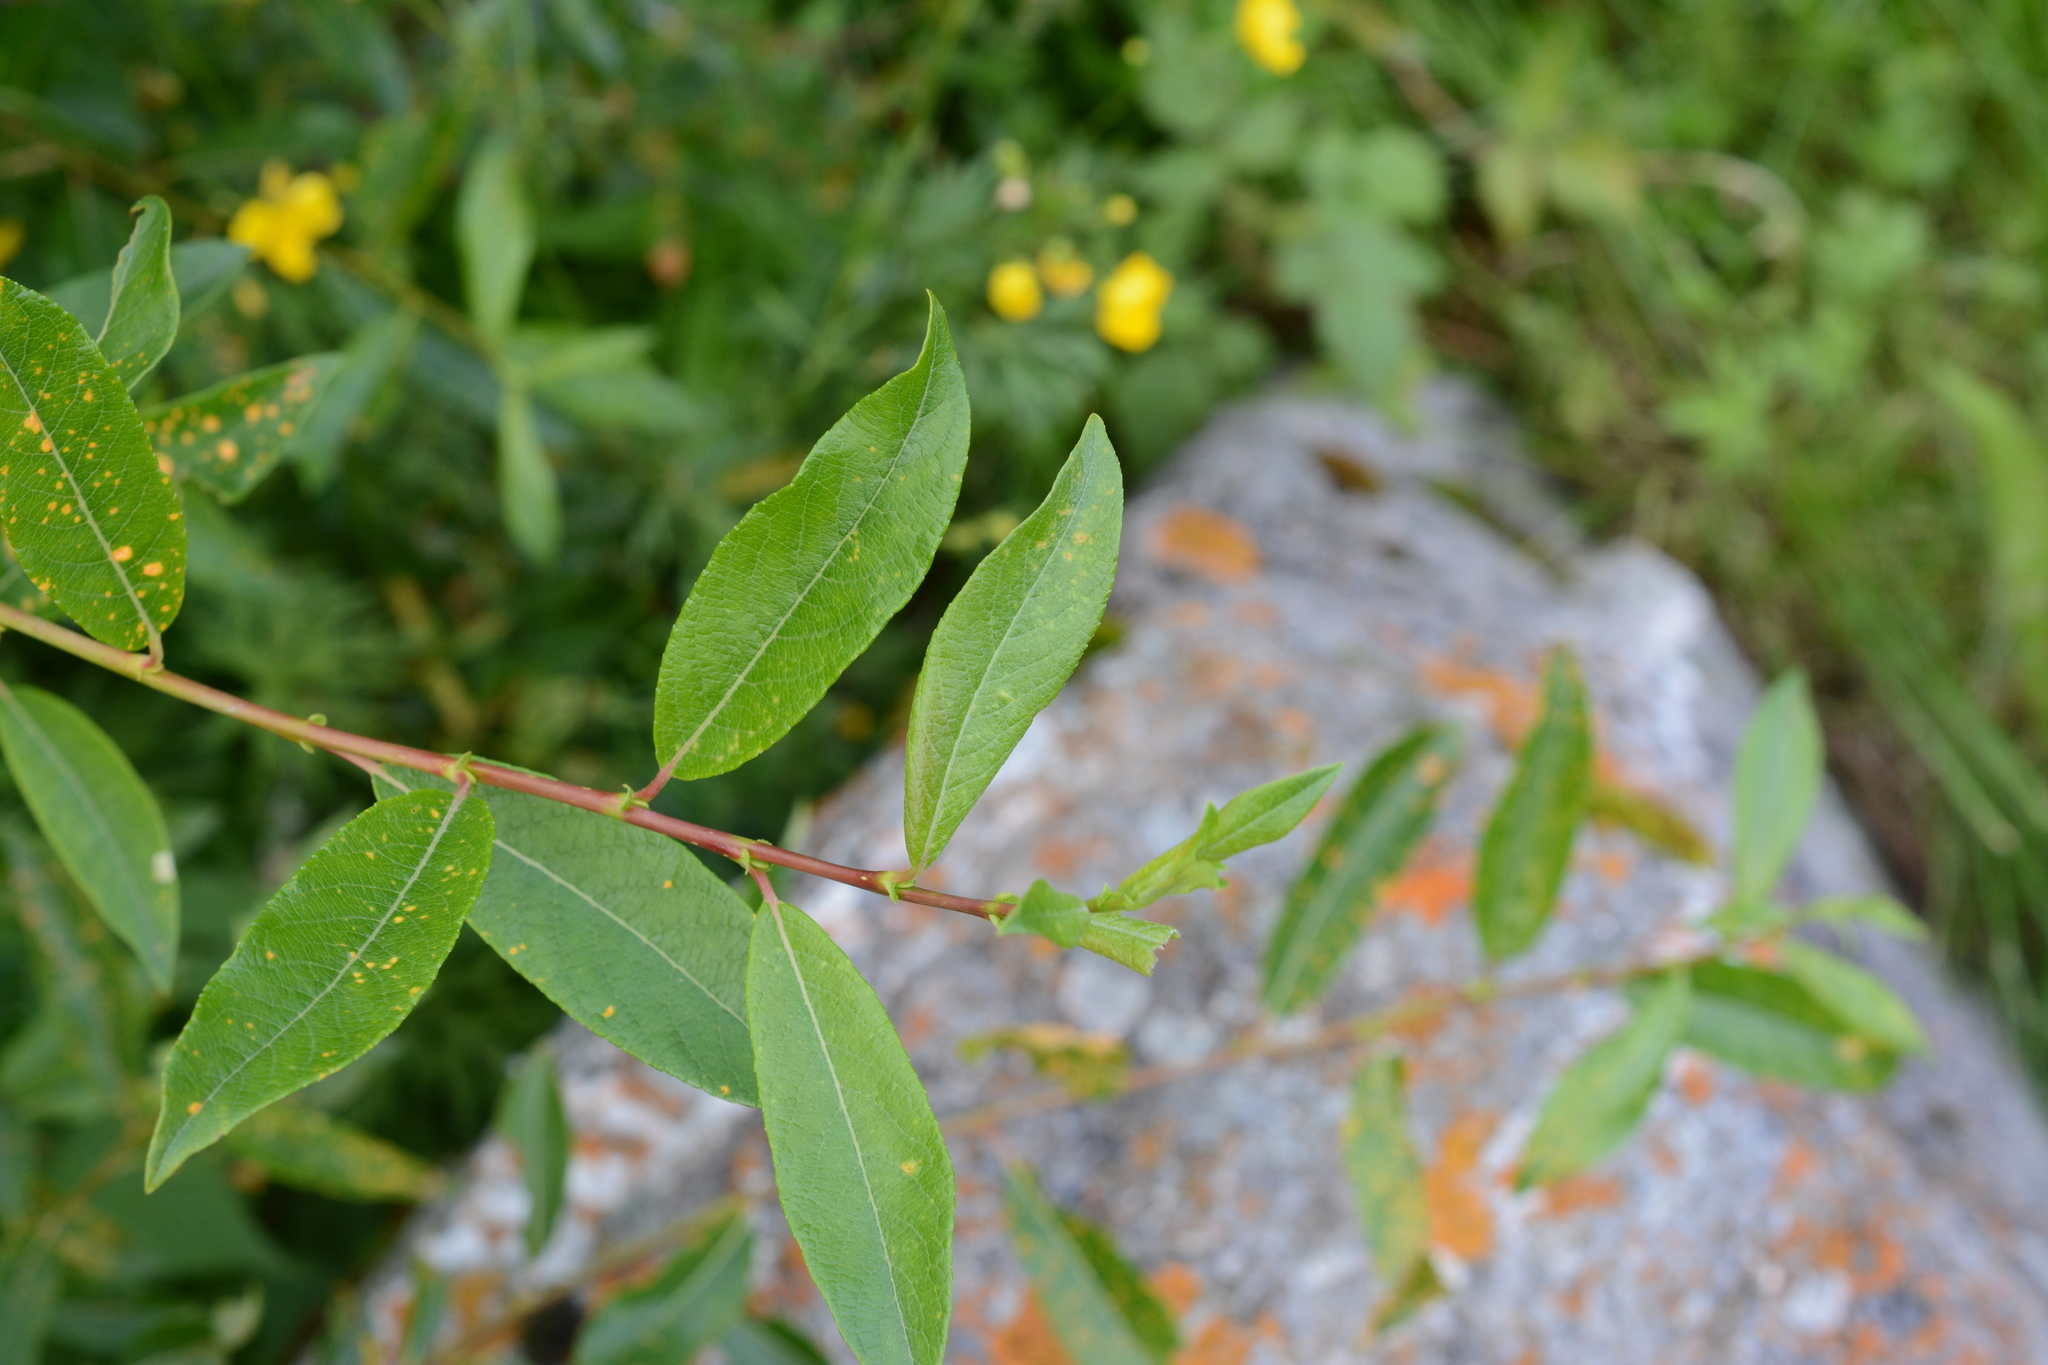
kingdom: Plantae
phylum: Tracheophyta
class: Magnoliopsida
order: Malpighiales
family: Salicaceae
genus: Salix
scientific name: Salix discolor
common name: Glaucous willow
